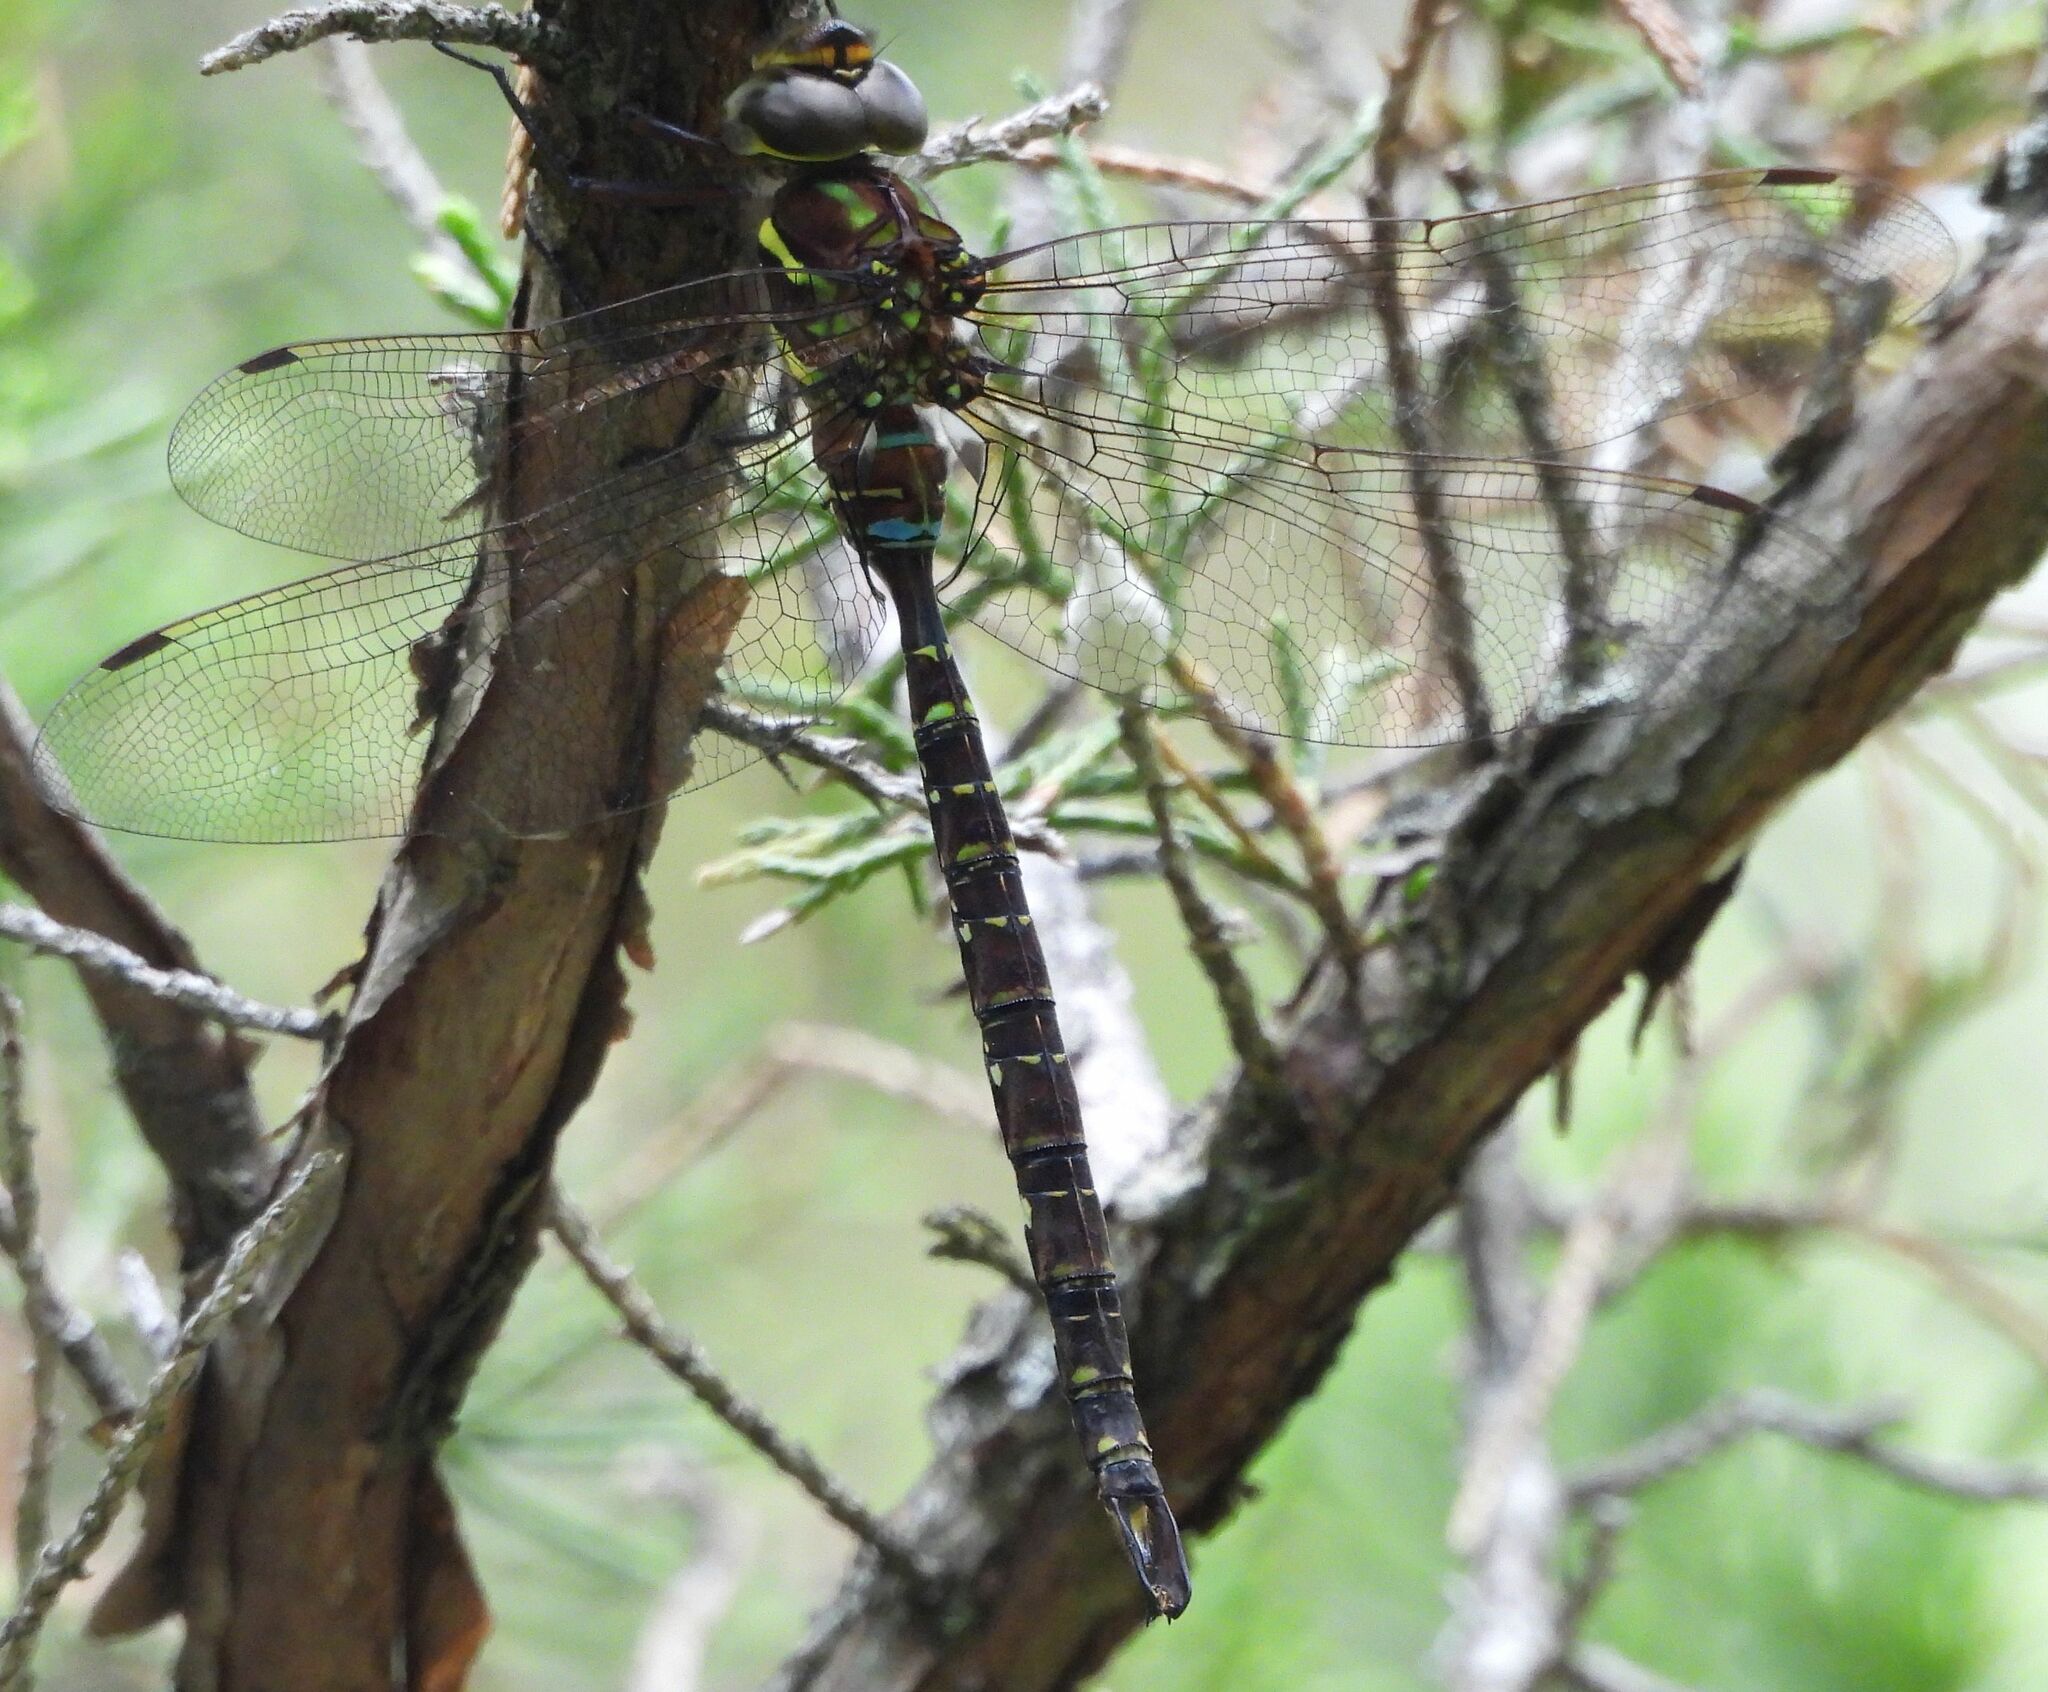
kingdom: Animalia
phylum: Arthropoda
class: Insecta
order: Odonata
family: Aeshnidae
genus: Aeshna
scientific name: Aeshna umbrosa
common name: Shadow darner
